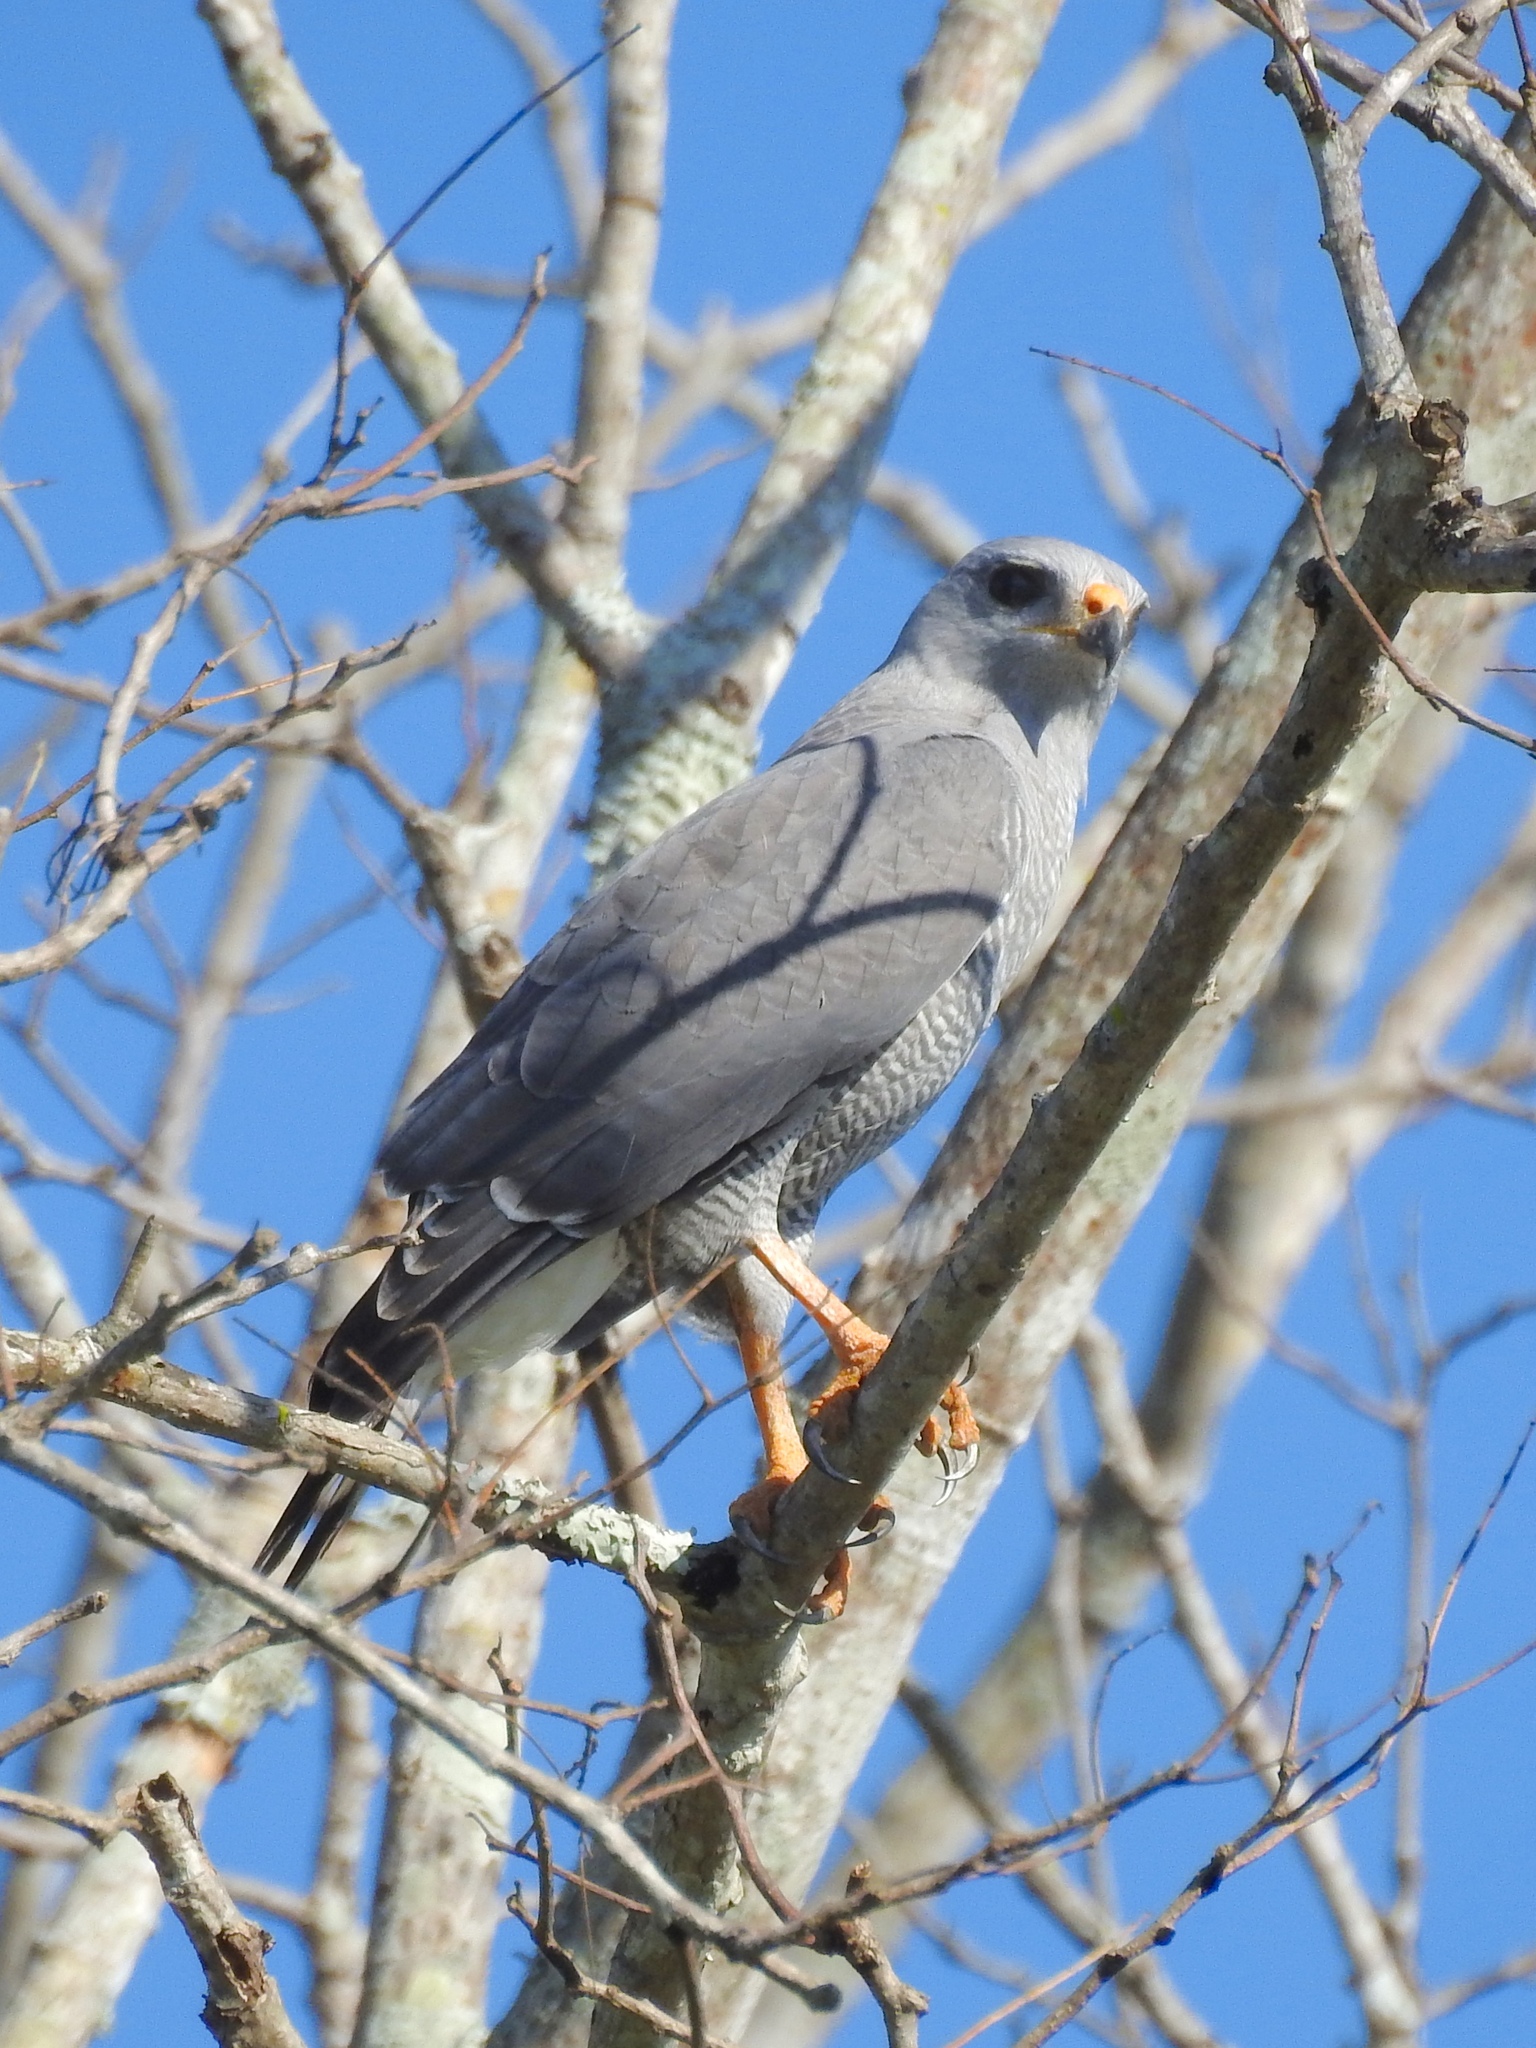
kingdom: Animalia
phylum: Chordata
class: Aves
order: Accipitriformes
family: Accipitridae
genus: Buteo
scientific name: Buteo nitidus
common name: Grey-lined hawk
